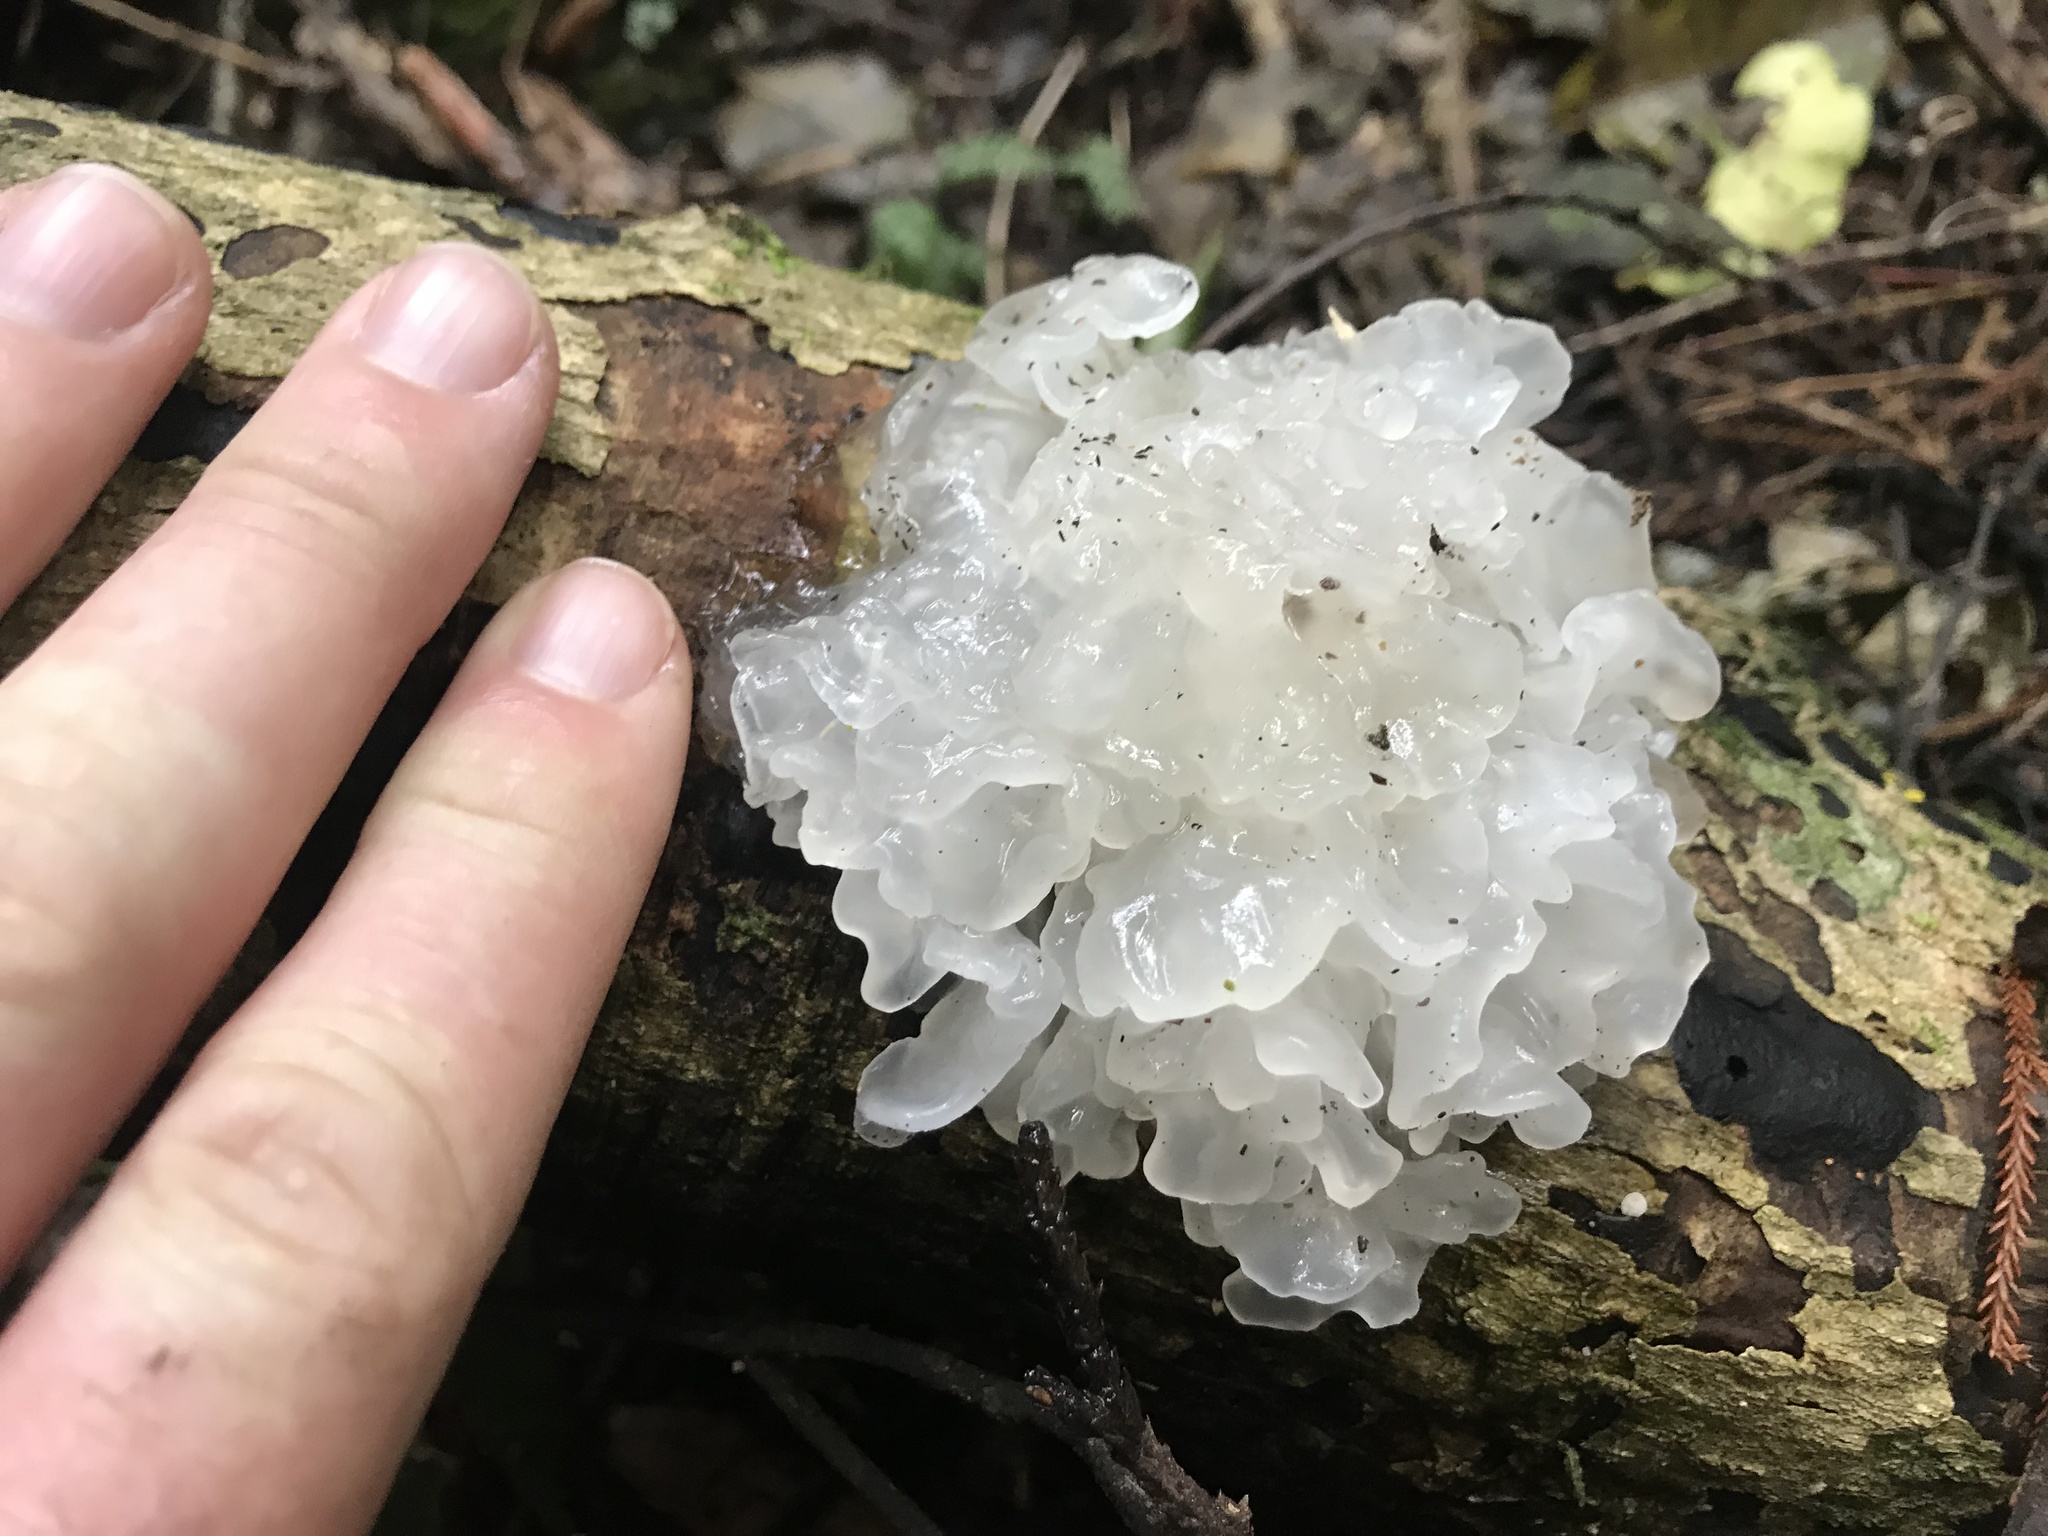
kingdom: Fungi
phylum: Basidiomycota
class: Tremellomycetes
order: Tremellales
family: Tremellaceae
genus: Tremella
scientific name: Tremella fuciformis
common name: Snow fungus
